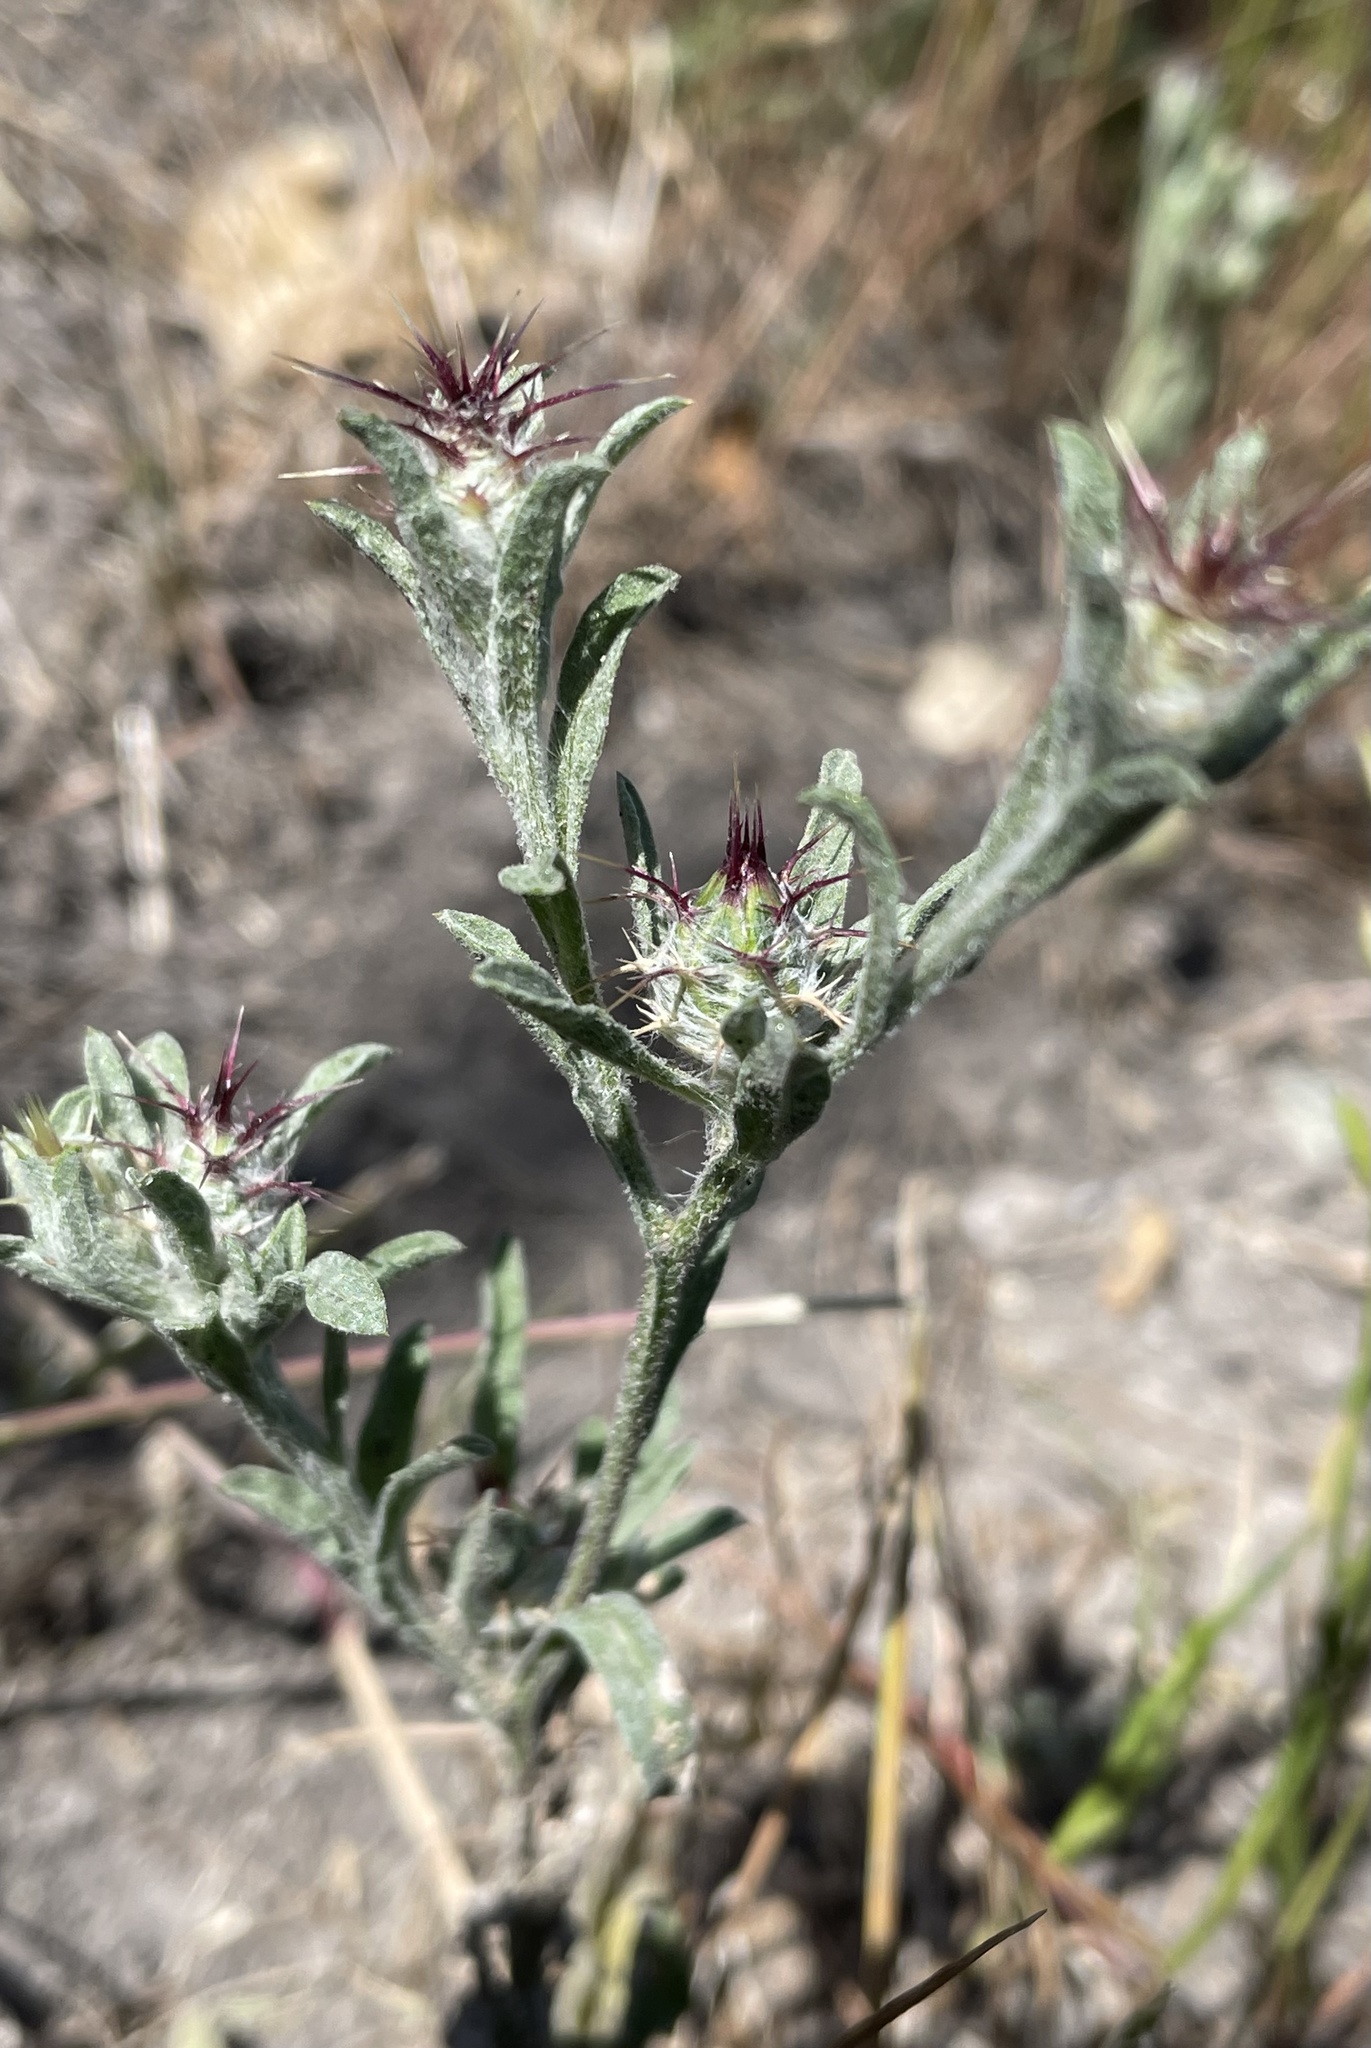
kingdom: Plantae
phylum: Tracheophyta
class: Magnoliopsida
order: Asterales
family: Asteraceae
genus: Centaurea
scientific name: Centaurea melitensis
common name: Maltese star-thistle
